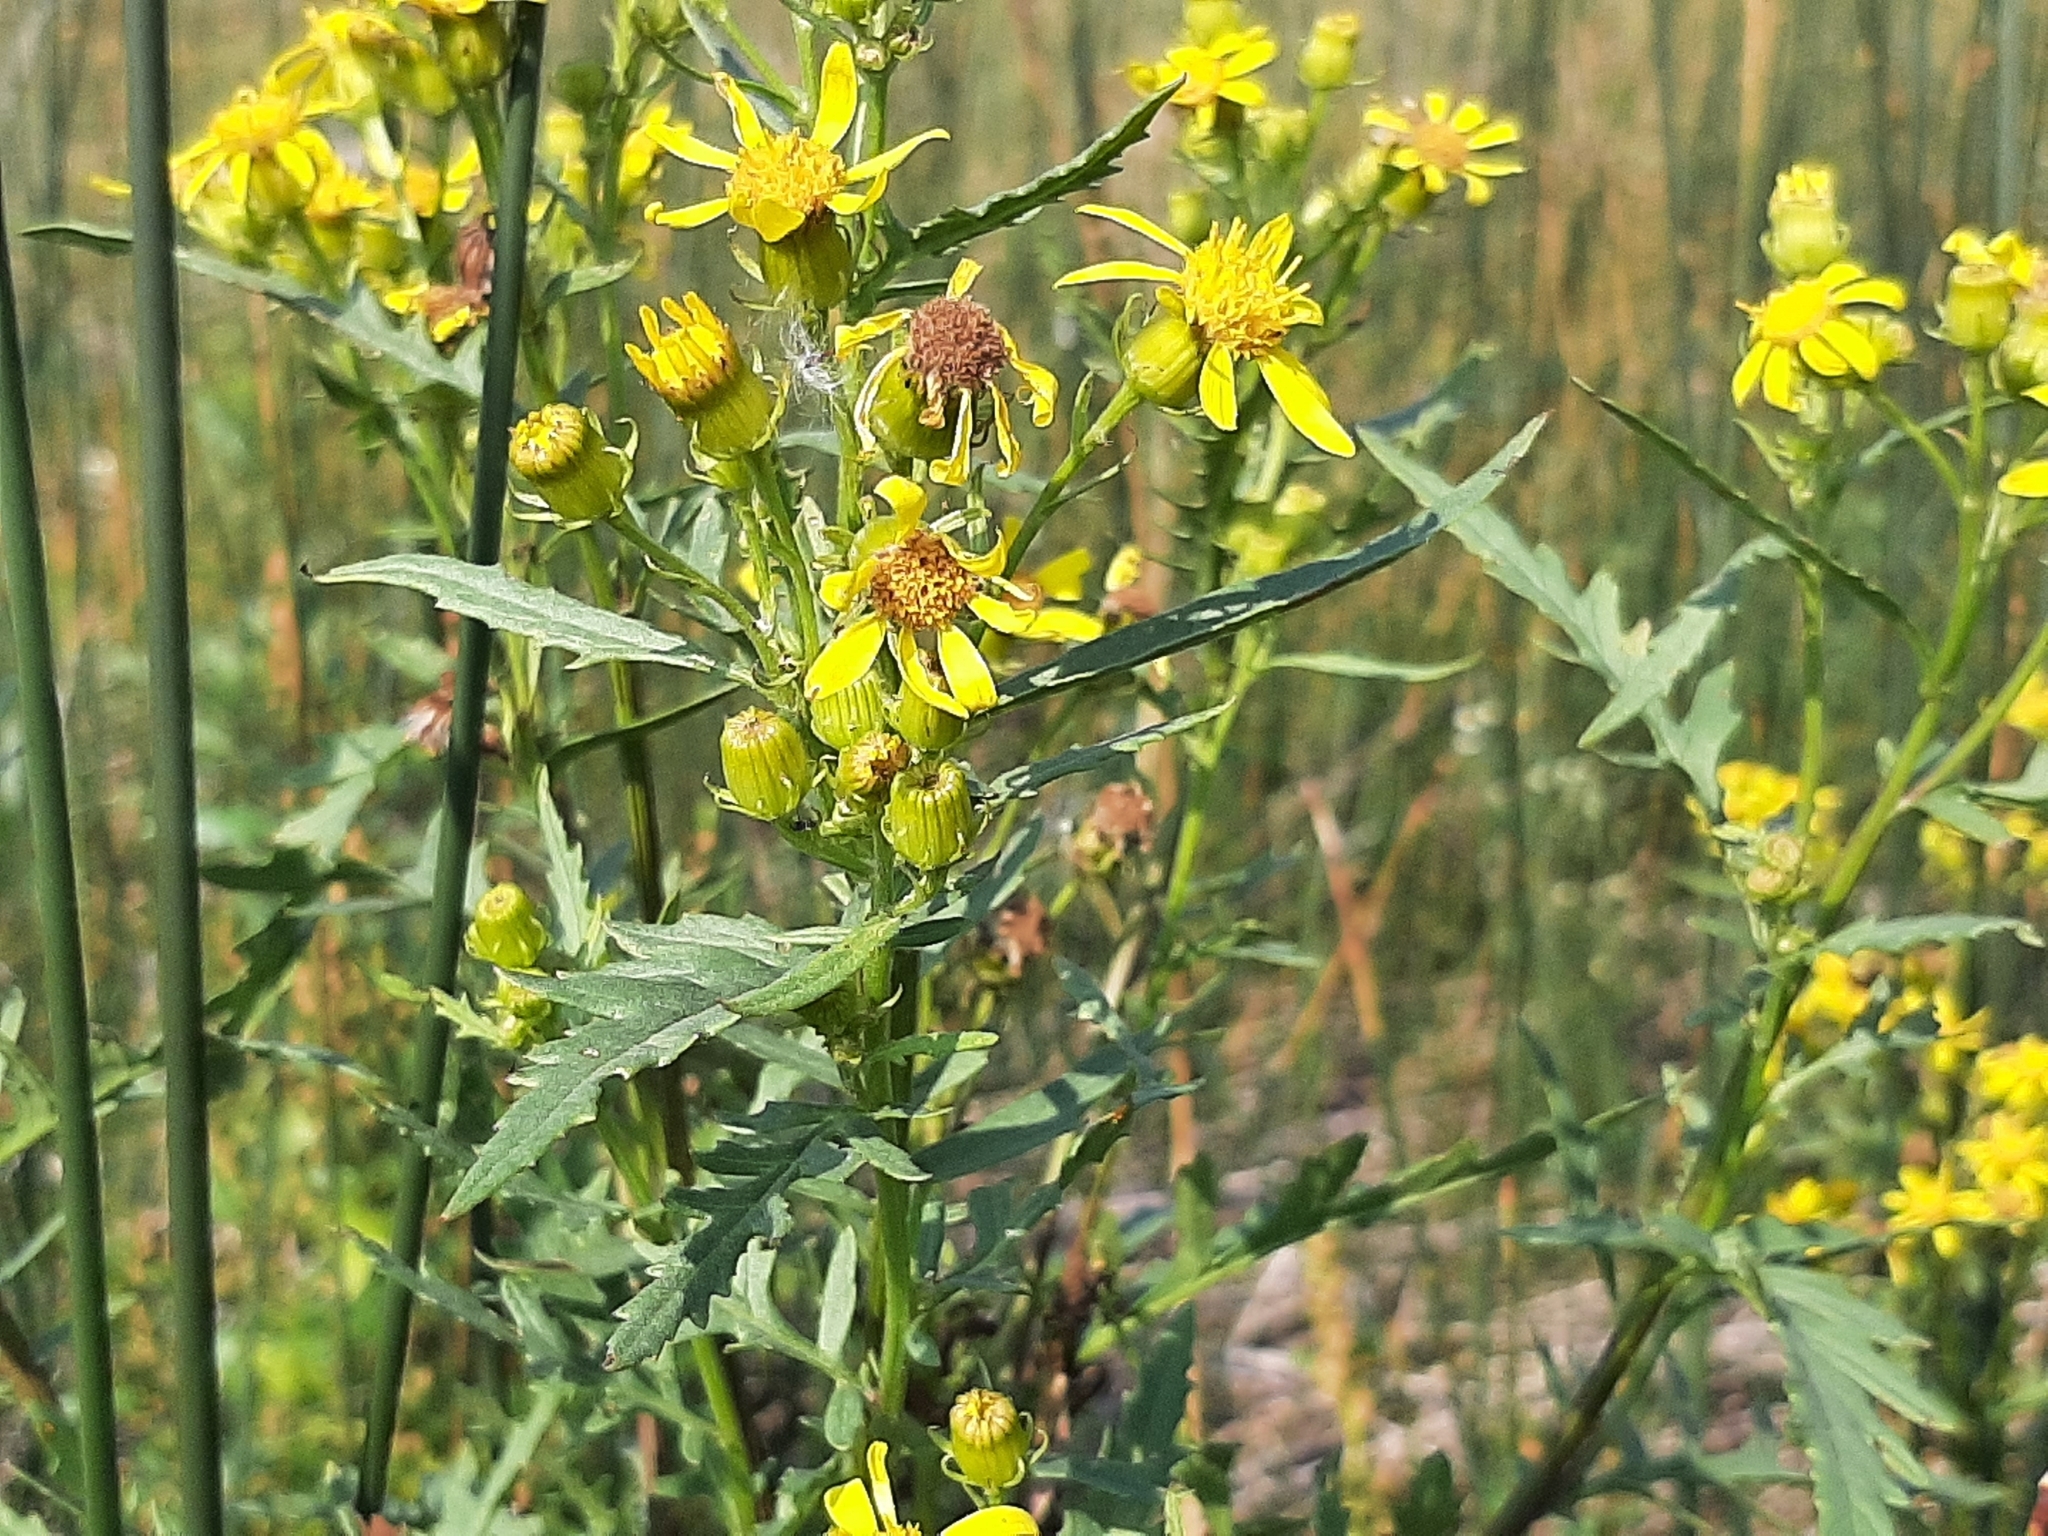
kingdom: Plantae
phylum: Tracheophyta
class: Magnoliopsida
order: Asterales
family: Asteraceae
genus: Senecio
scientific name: Senecio eremophilus
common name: Desert ragwort
